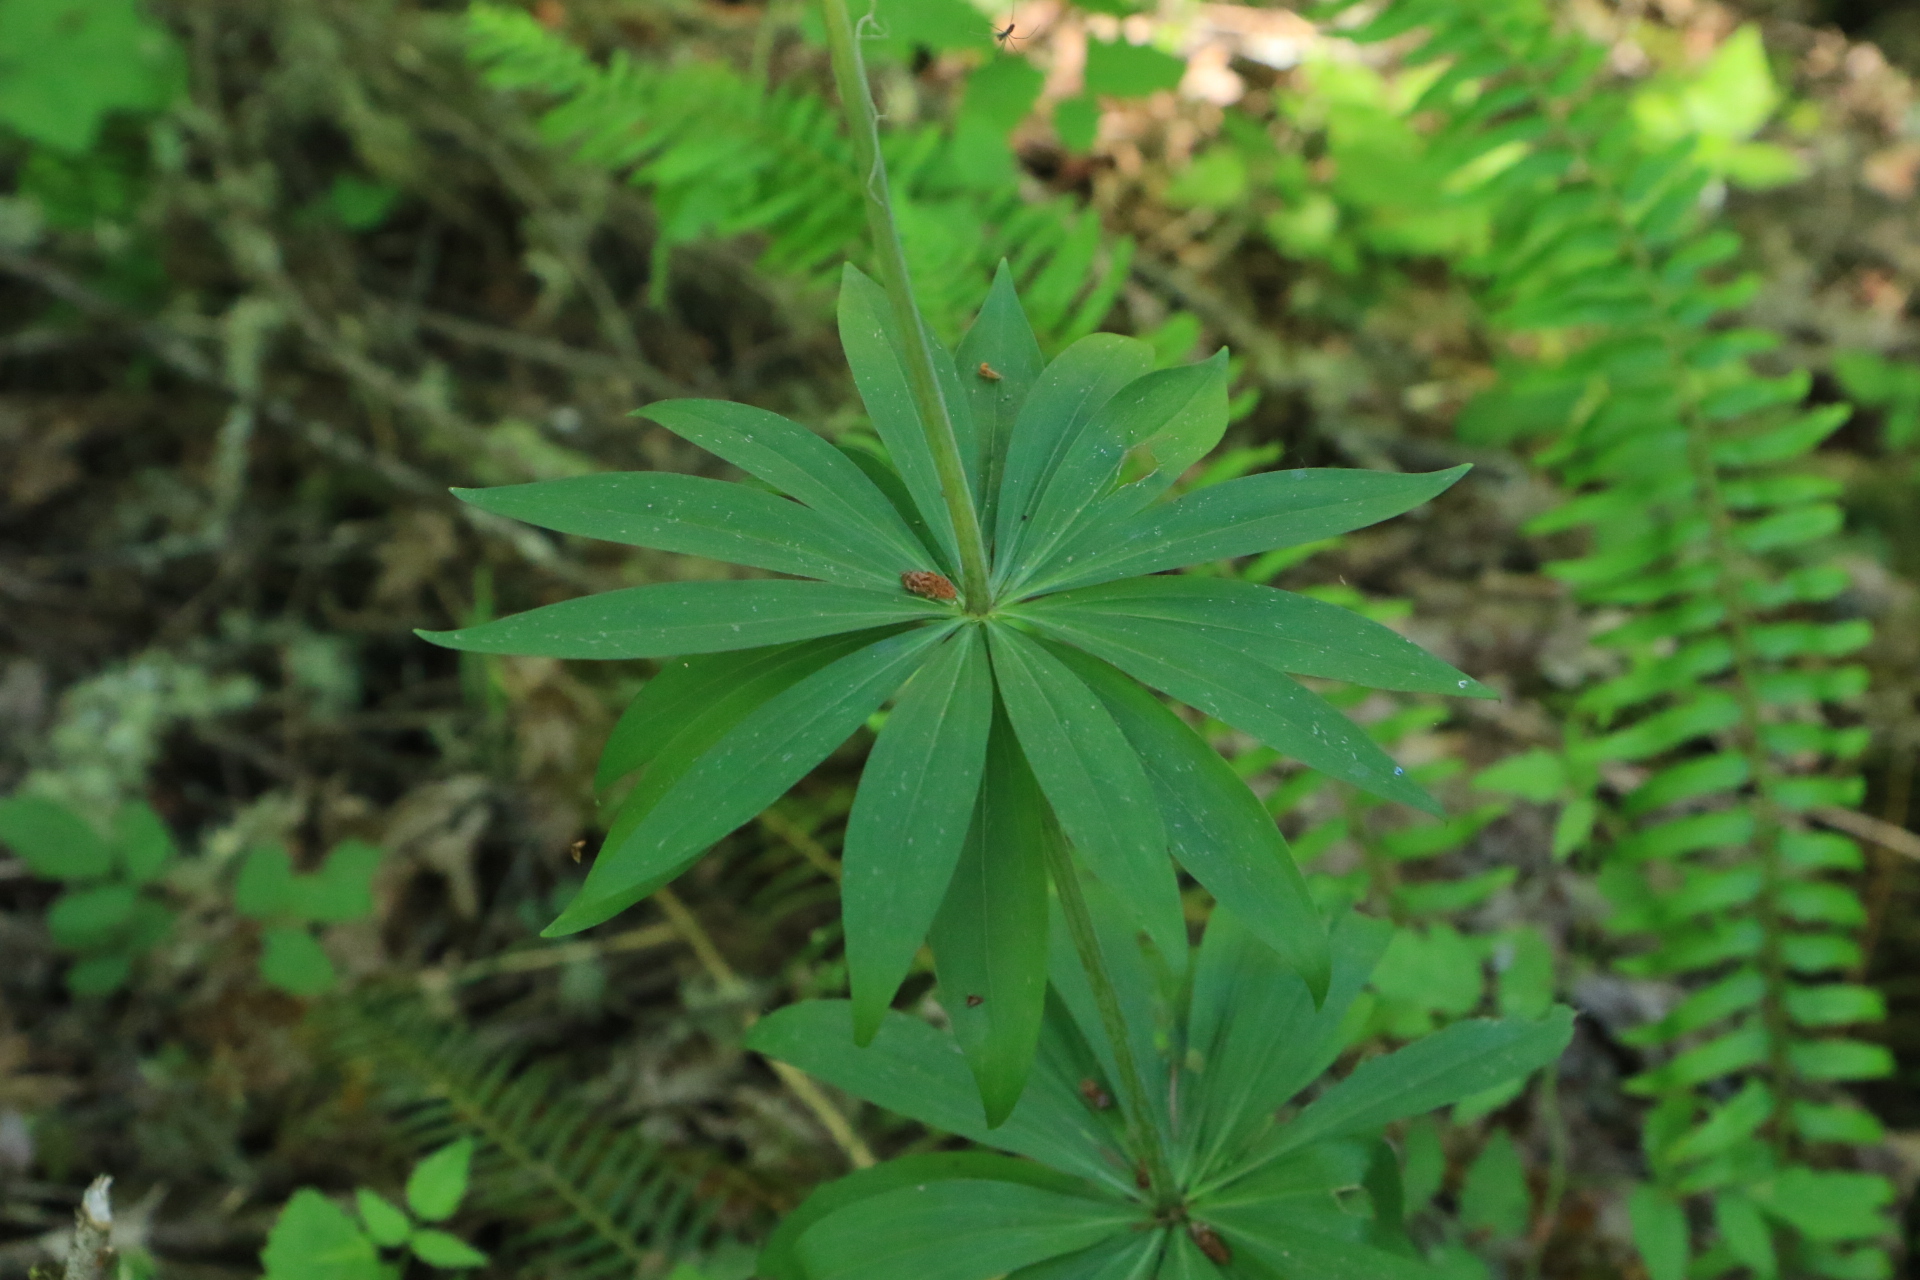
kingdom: Plantae
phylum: Tracheophyta
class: Liliopsida
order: Liliales
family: Liliaceae
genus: Lilium
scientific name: Lilium columbianum
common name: Columbia lily
